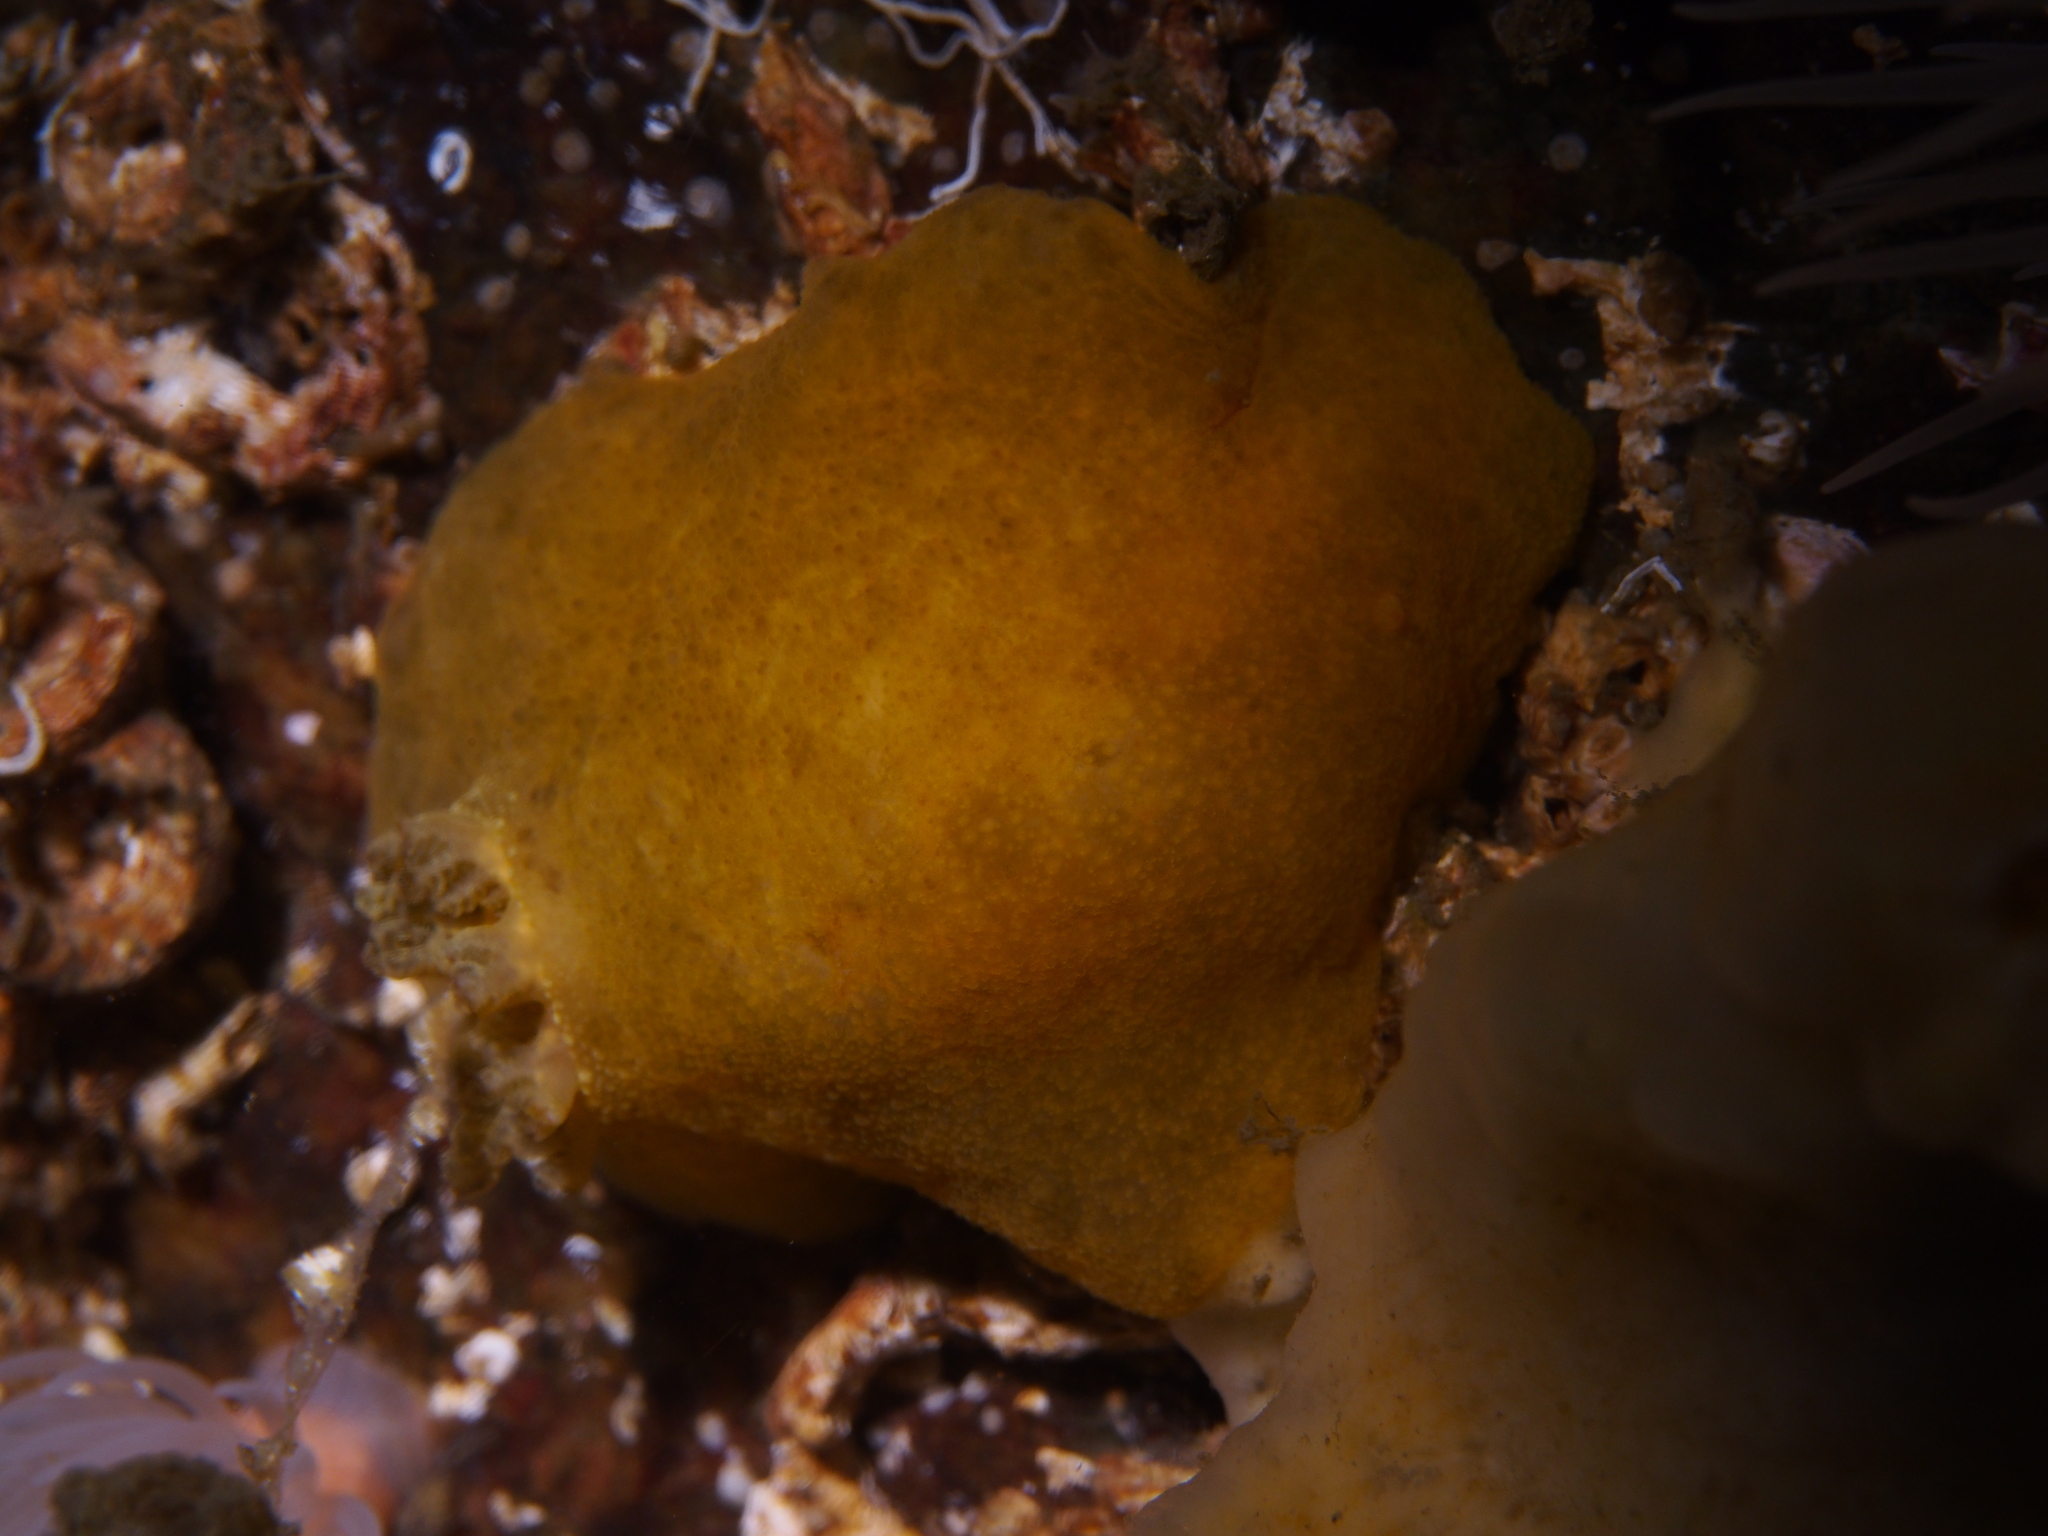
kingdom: Animalia
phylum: Mollusca
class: Gastropoda
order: Nudibranchia
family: Dorididae
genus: Doris
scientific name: Doris pseudoargus
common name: Sea lemon
